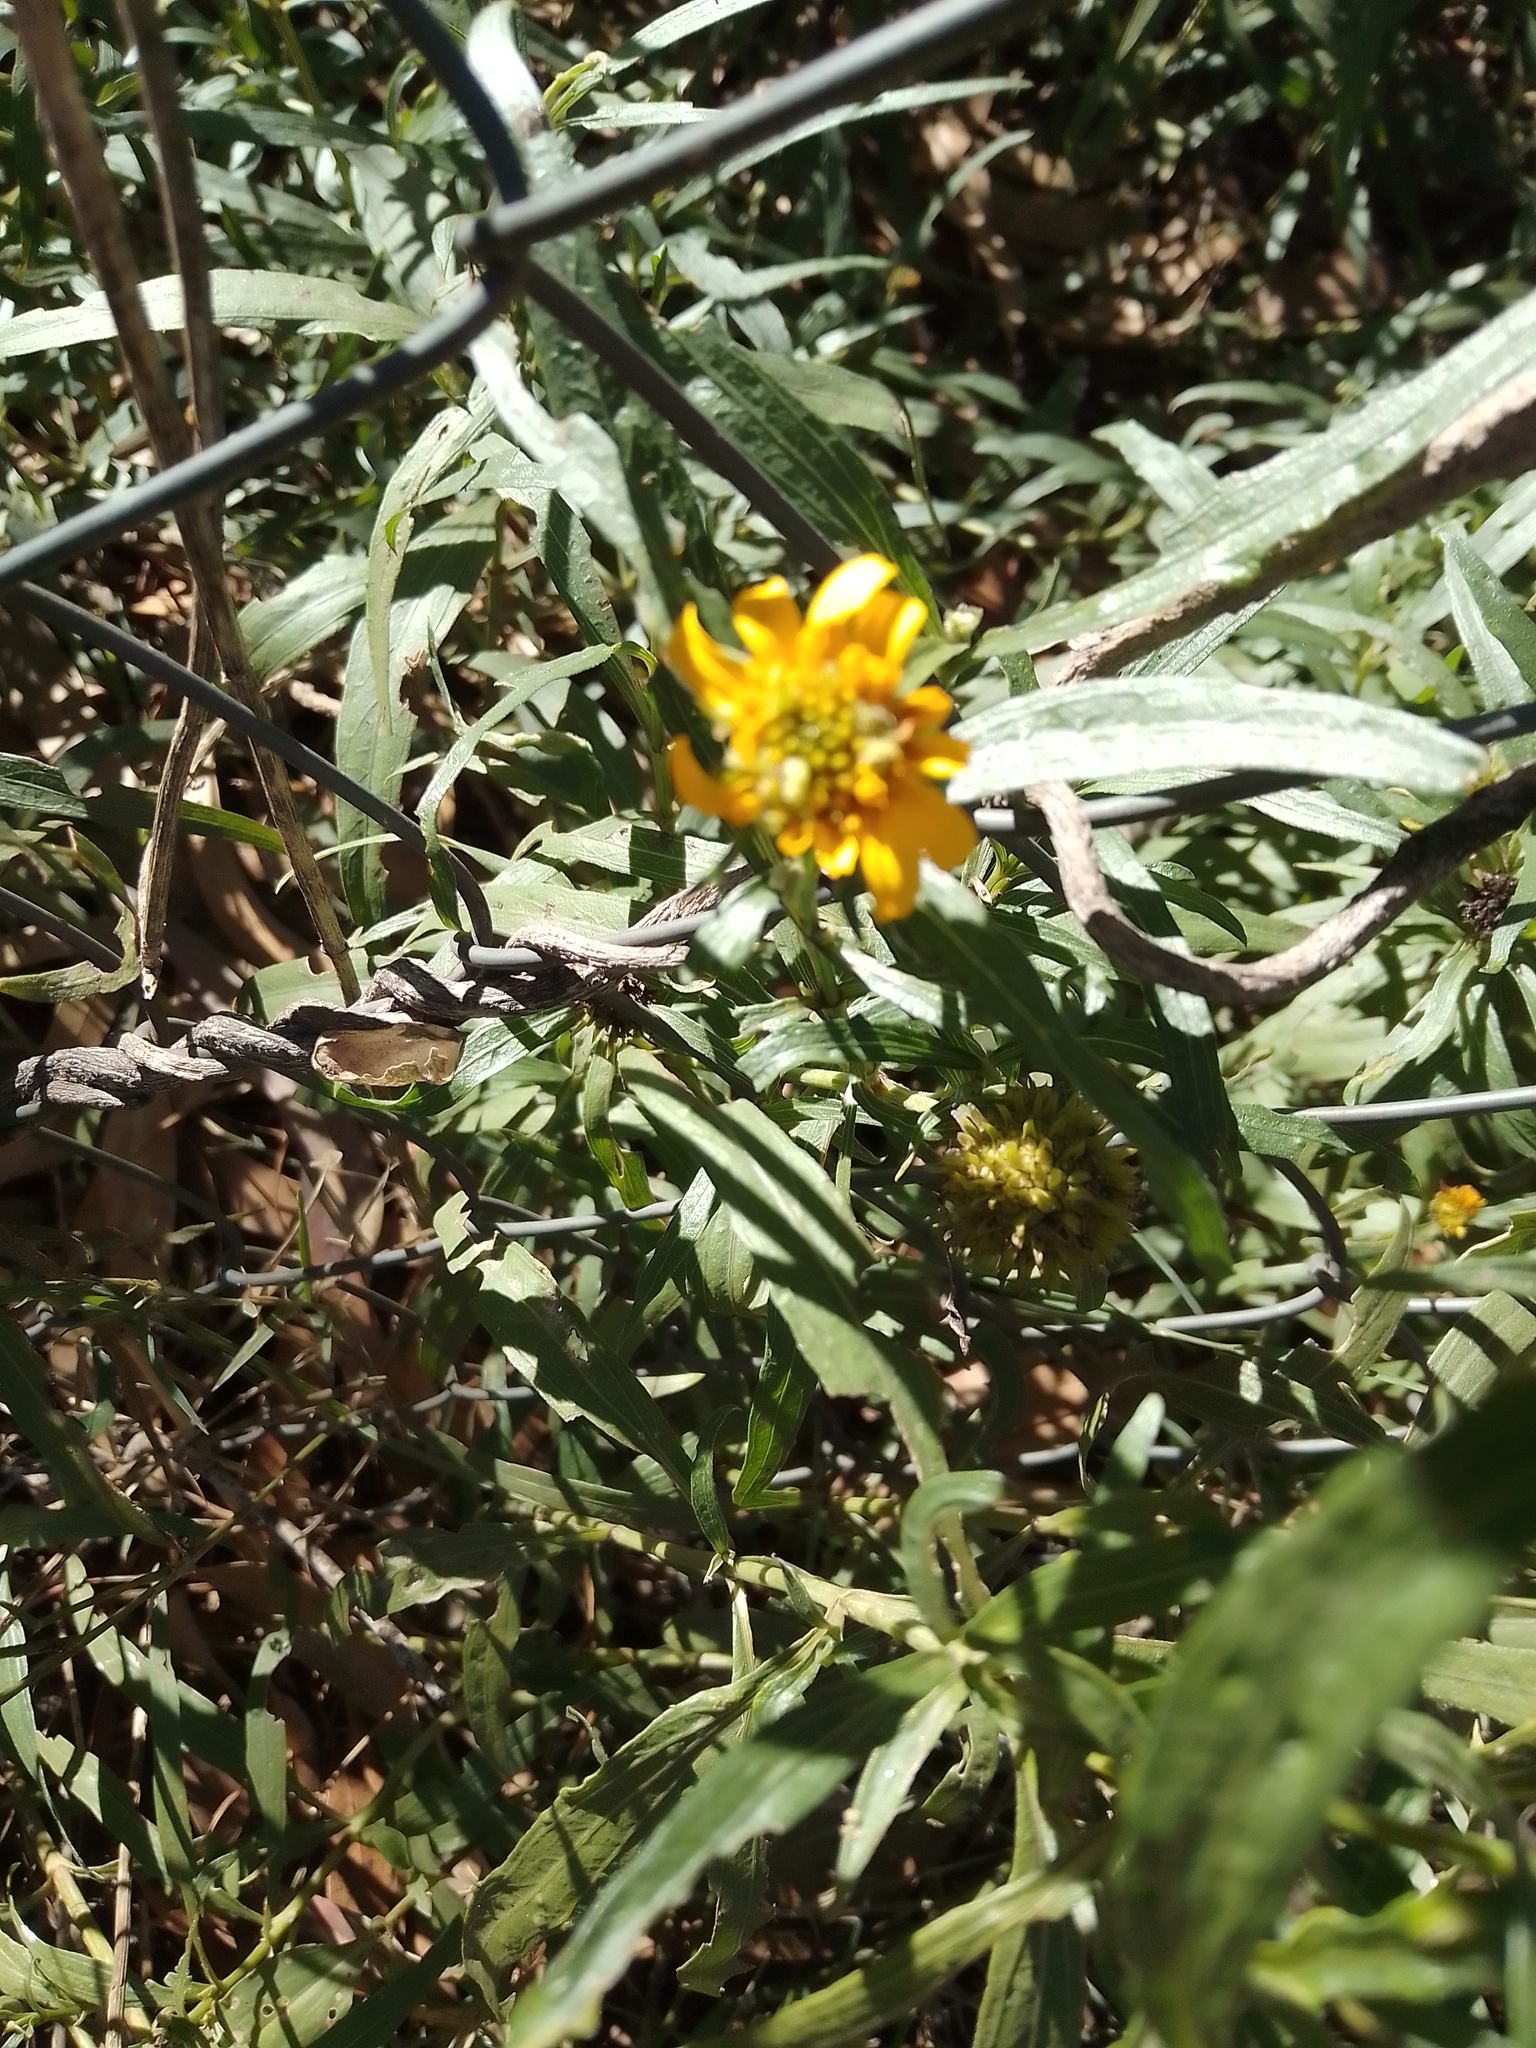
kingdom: Plantae
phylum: Tracheophyta
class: Magnoliopsida
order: Asterales
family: Asteraceae
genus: Pascalia
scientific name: Pascalia glauca
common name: Beach creeping oxeye
